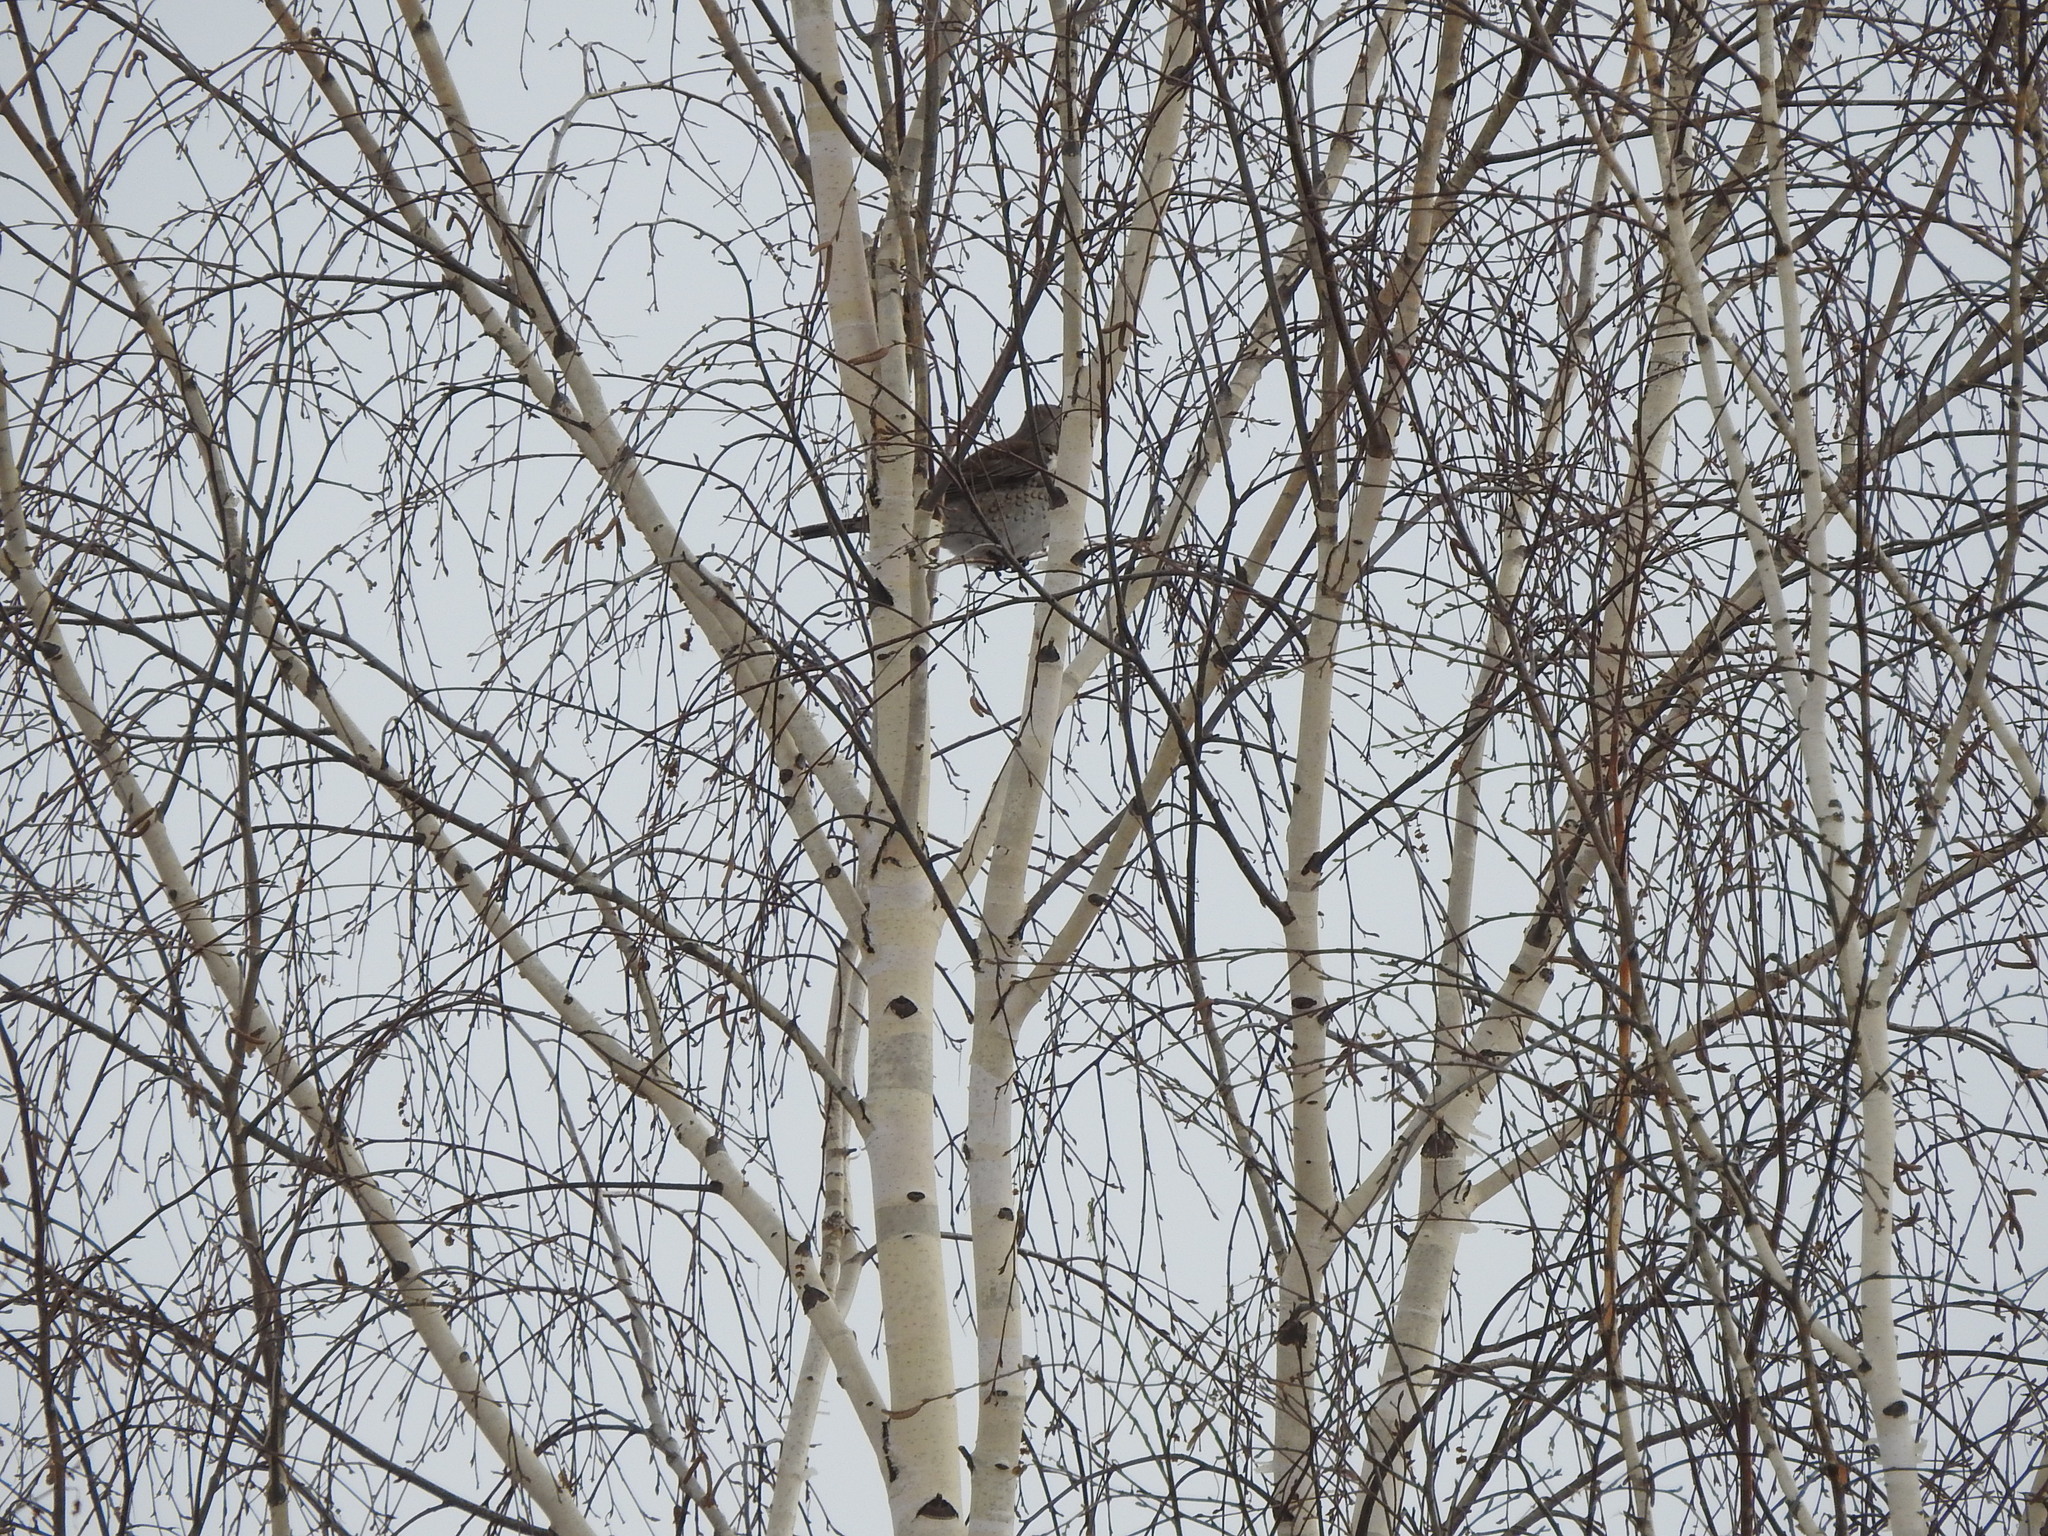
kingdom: Animalia
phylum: Chordata
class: Aves
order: Passeriformes
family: Turdidae
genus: Turdus
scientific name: Turdus pilaris
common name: Fieldfare
